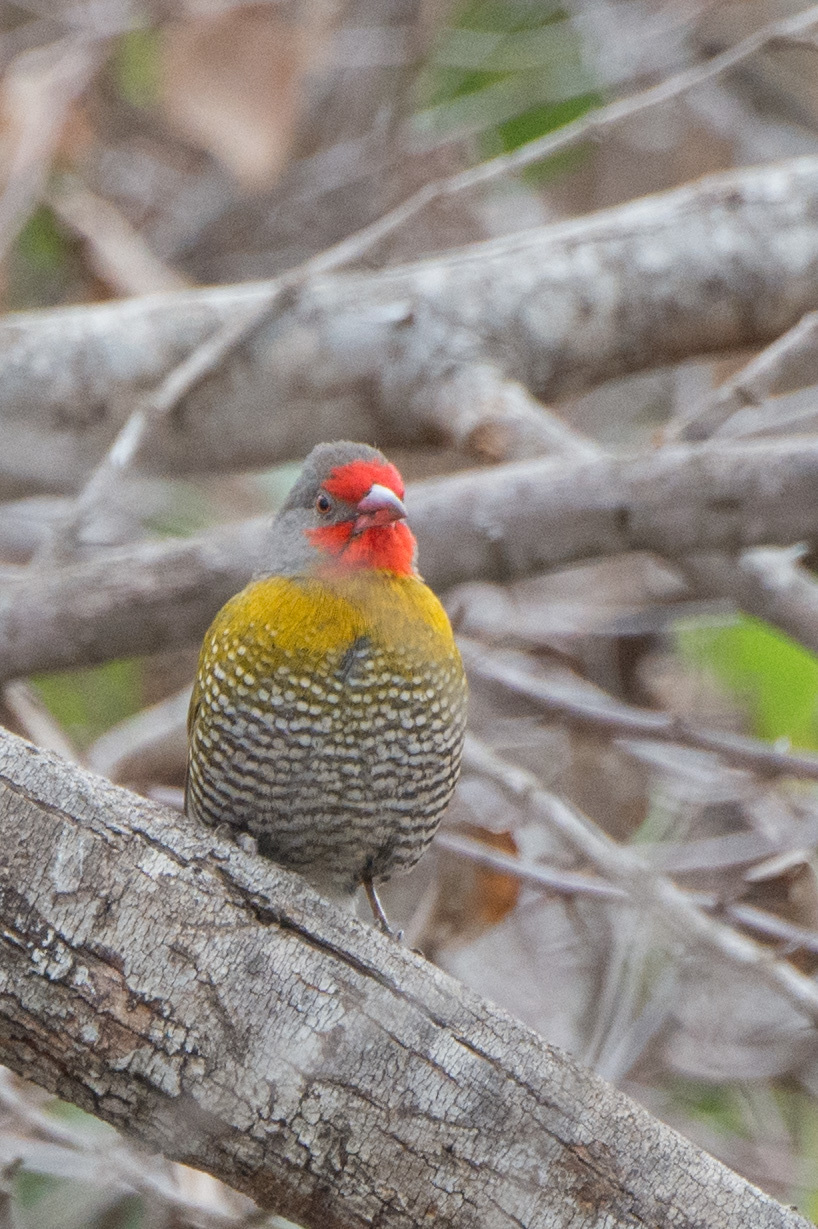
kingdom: Animalia
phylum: Chordata
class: Aves
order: Passeriformes
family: Estrildidae
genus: Pytilia
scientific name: Pytilia melba
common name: Green-winged pytilia
